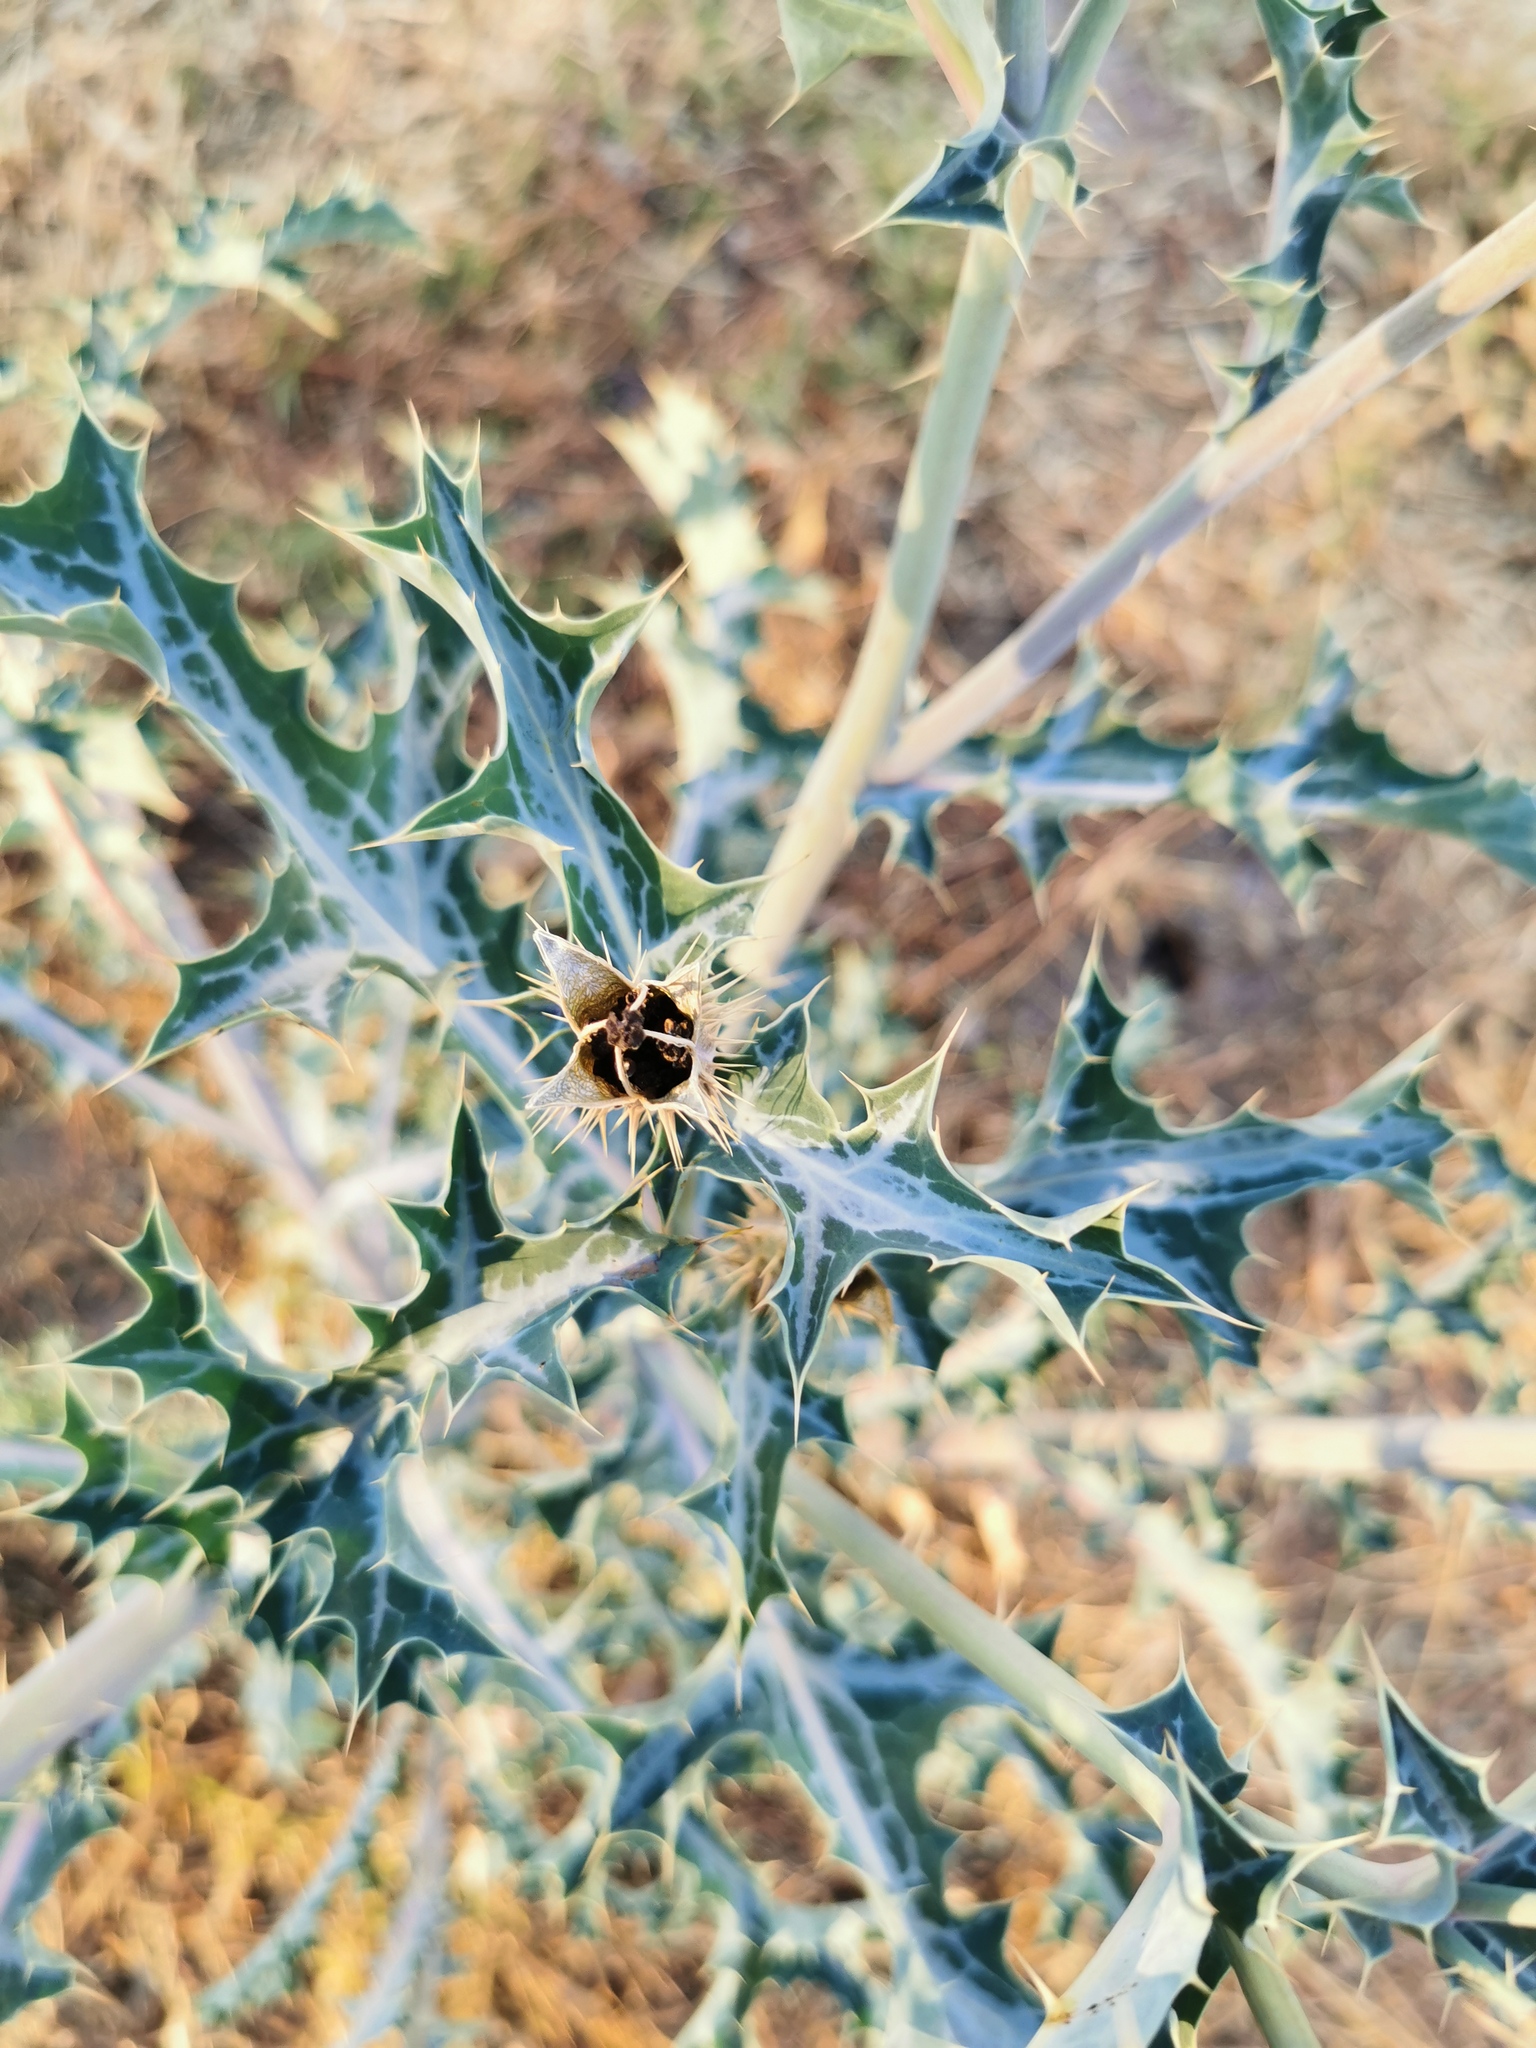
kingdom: Plantae
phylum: Tracheophyta
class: Magnoliopsida
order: Ranunculales
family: Papaveraceae
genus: Argemone
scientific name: Argemone ochroleuca
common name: White-flower mexican-poppy
